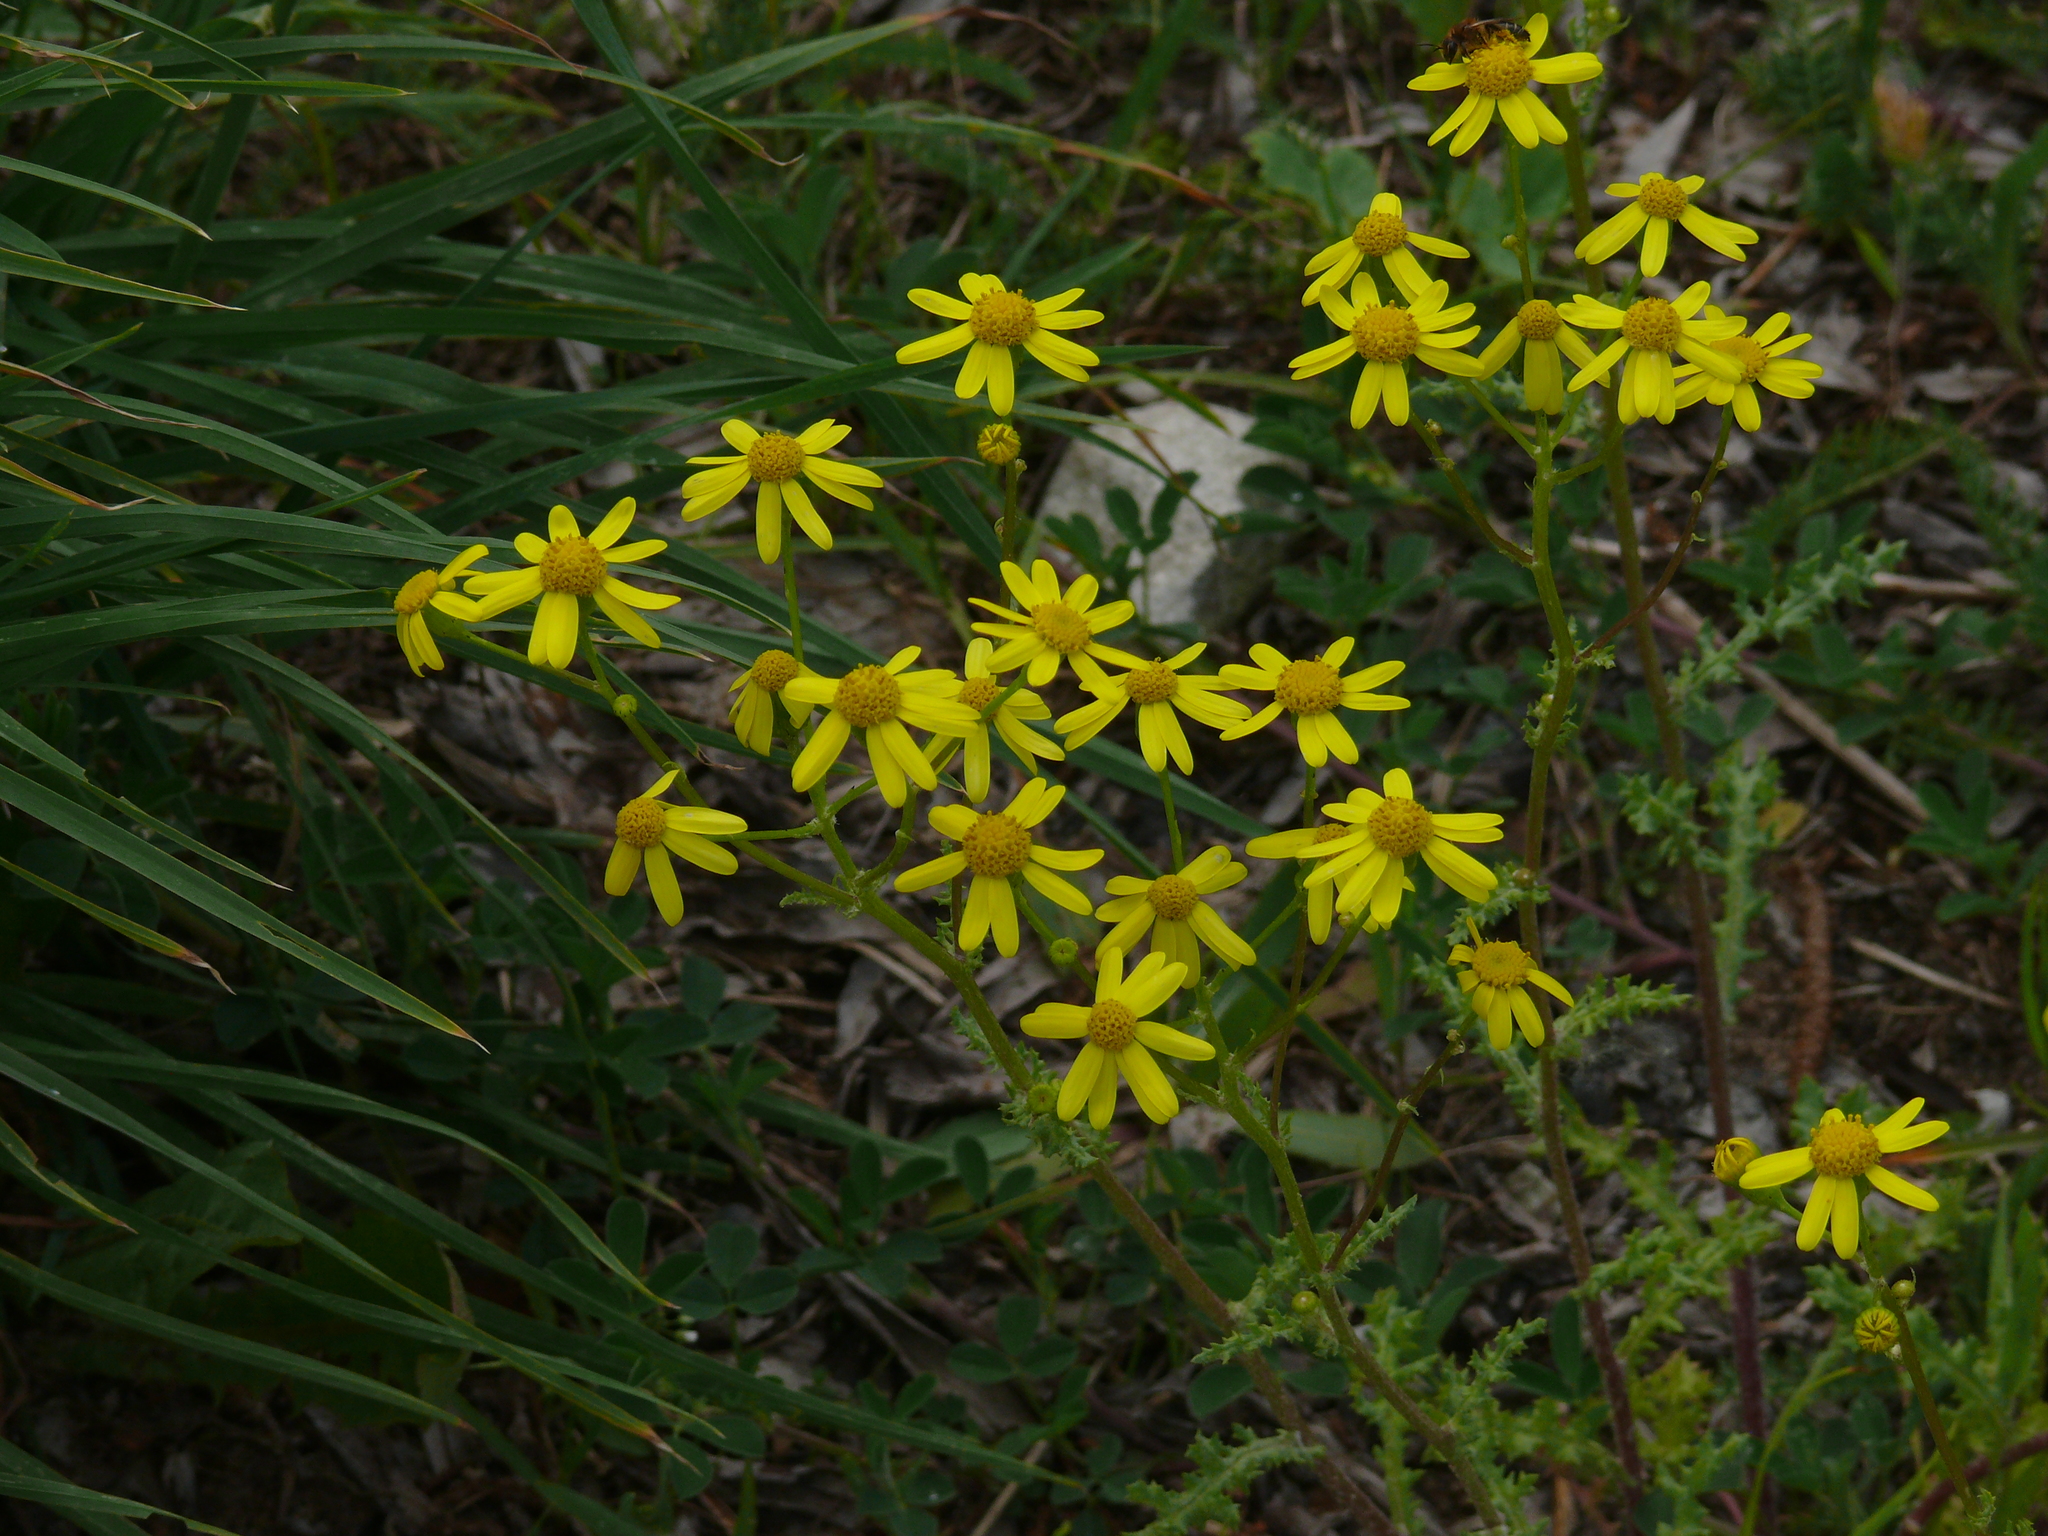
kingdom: Plantae
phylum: Tracheophyta
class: Magnoliopsida
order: Asterales
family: Asteraceae
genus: Senecio
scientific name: Senecio vernalis
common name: Eastern groundsel
